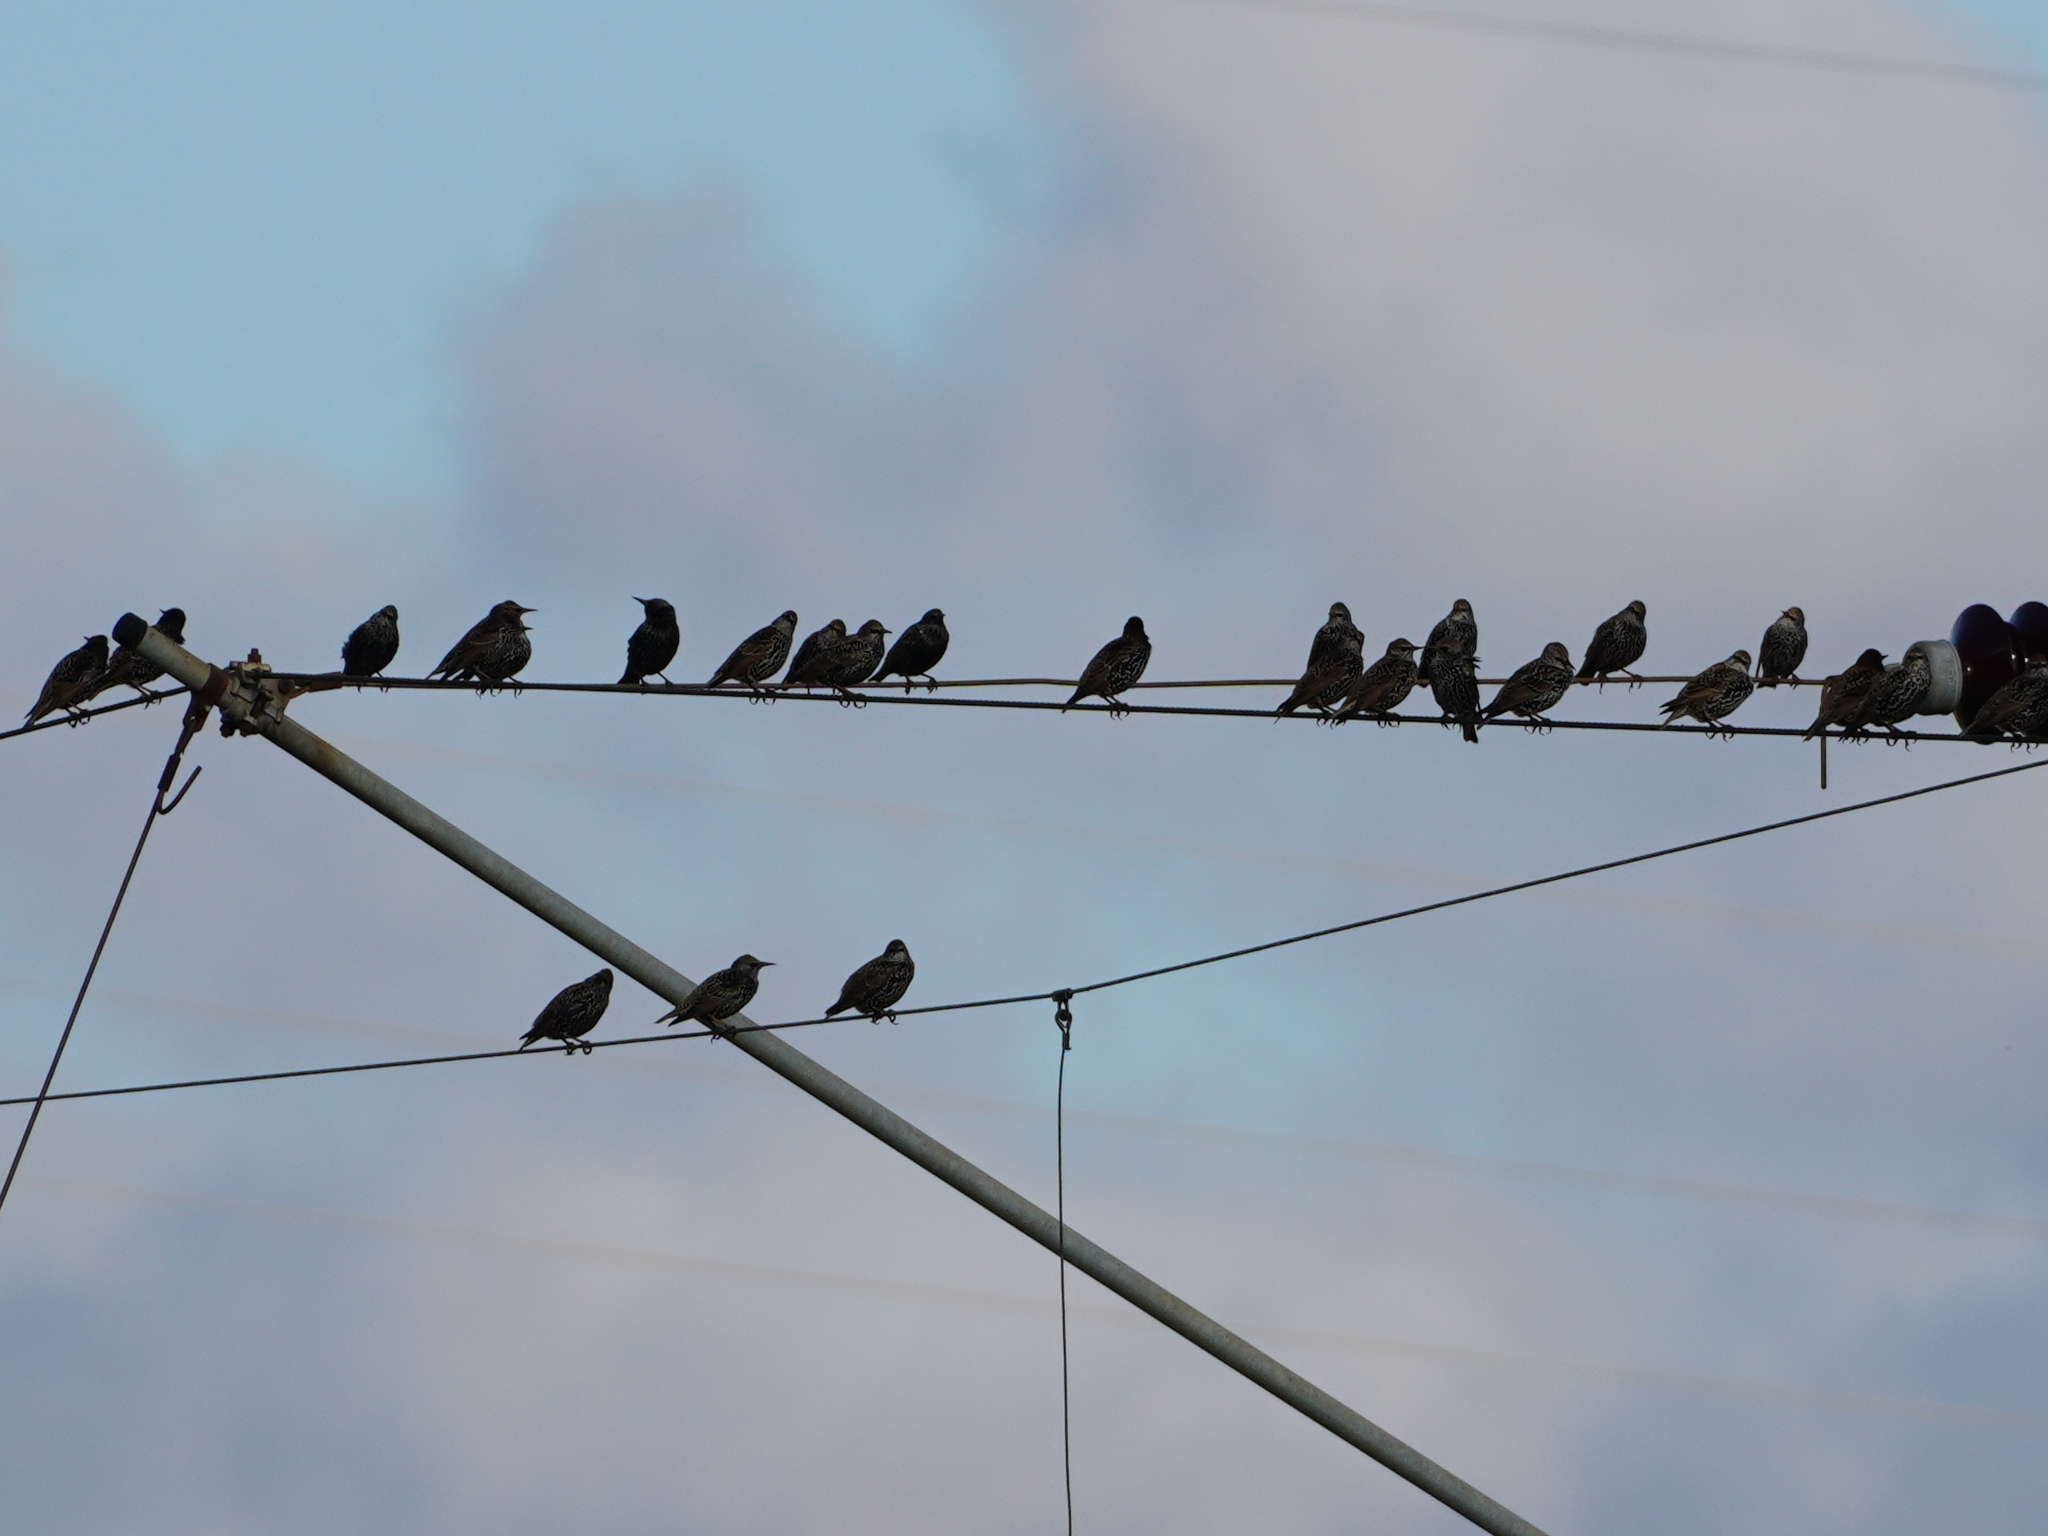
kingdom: Animalia
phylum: Chordata
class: Aves
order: Passeriformes
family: Sturnidae
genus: Sturnus
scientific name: Sturnus vulgaris
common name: Common starling
